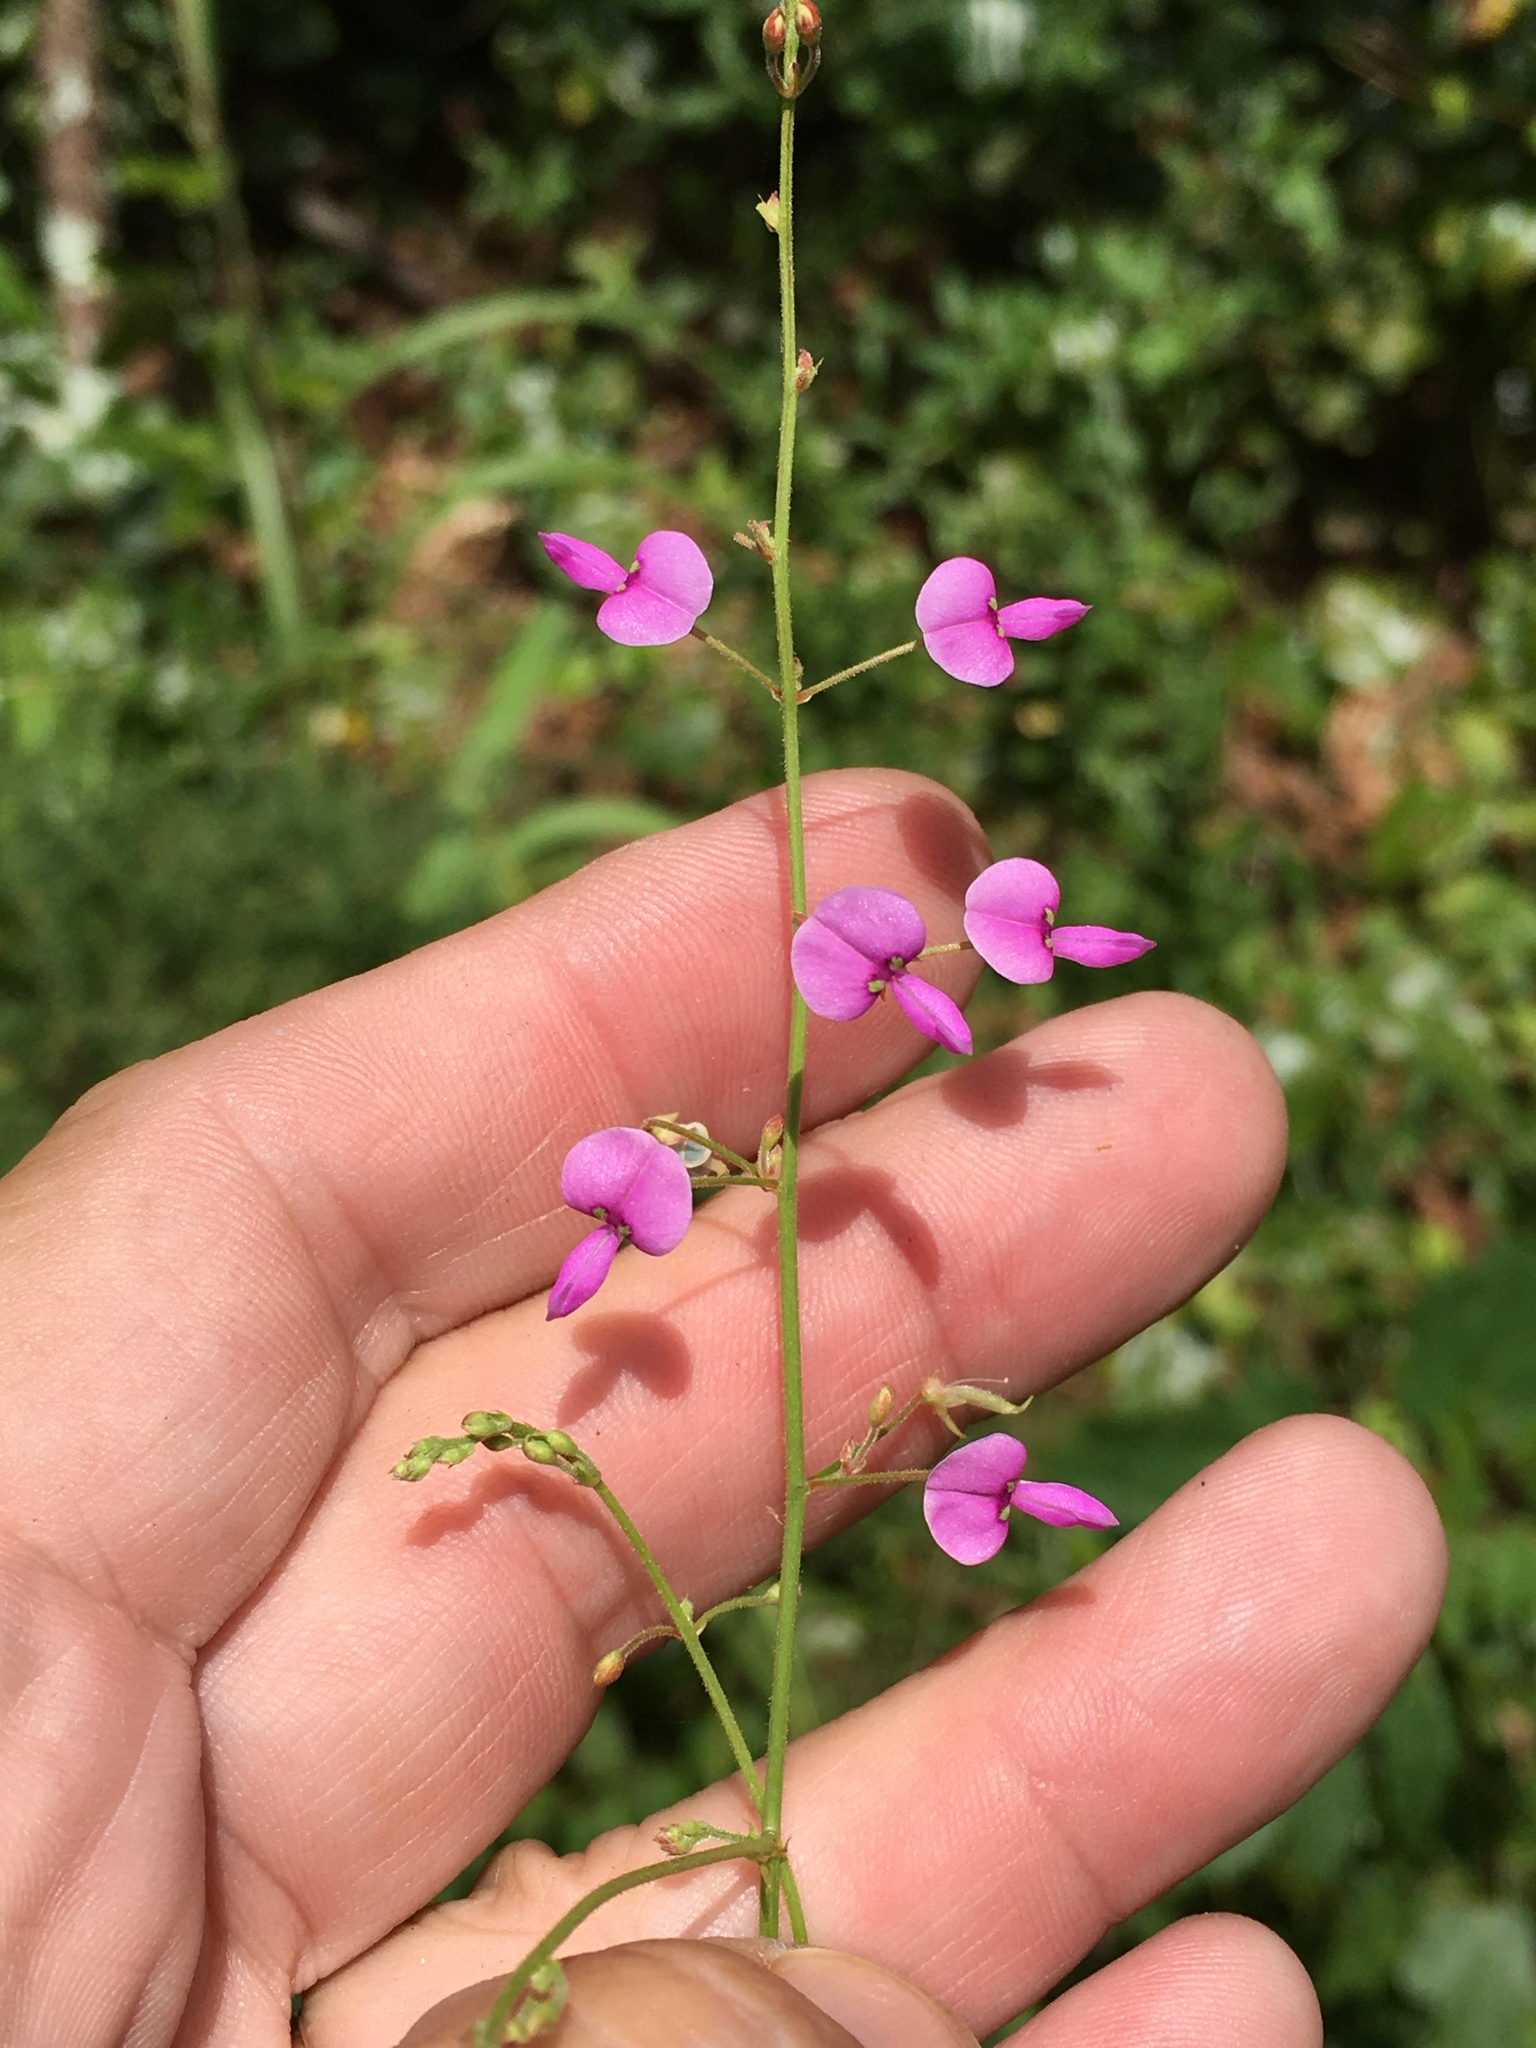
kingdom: Plantae
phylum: Tracheophyta
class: Magnoliopsida
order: Fabales
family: Fabaceae
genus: Desmodium
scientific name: Desmodium paniculatum
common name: Panicled tick-clover
